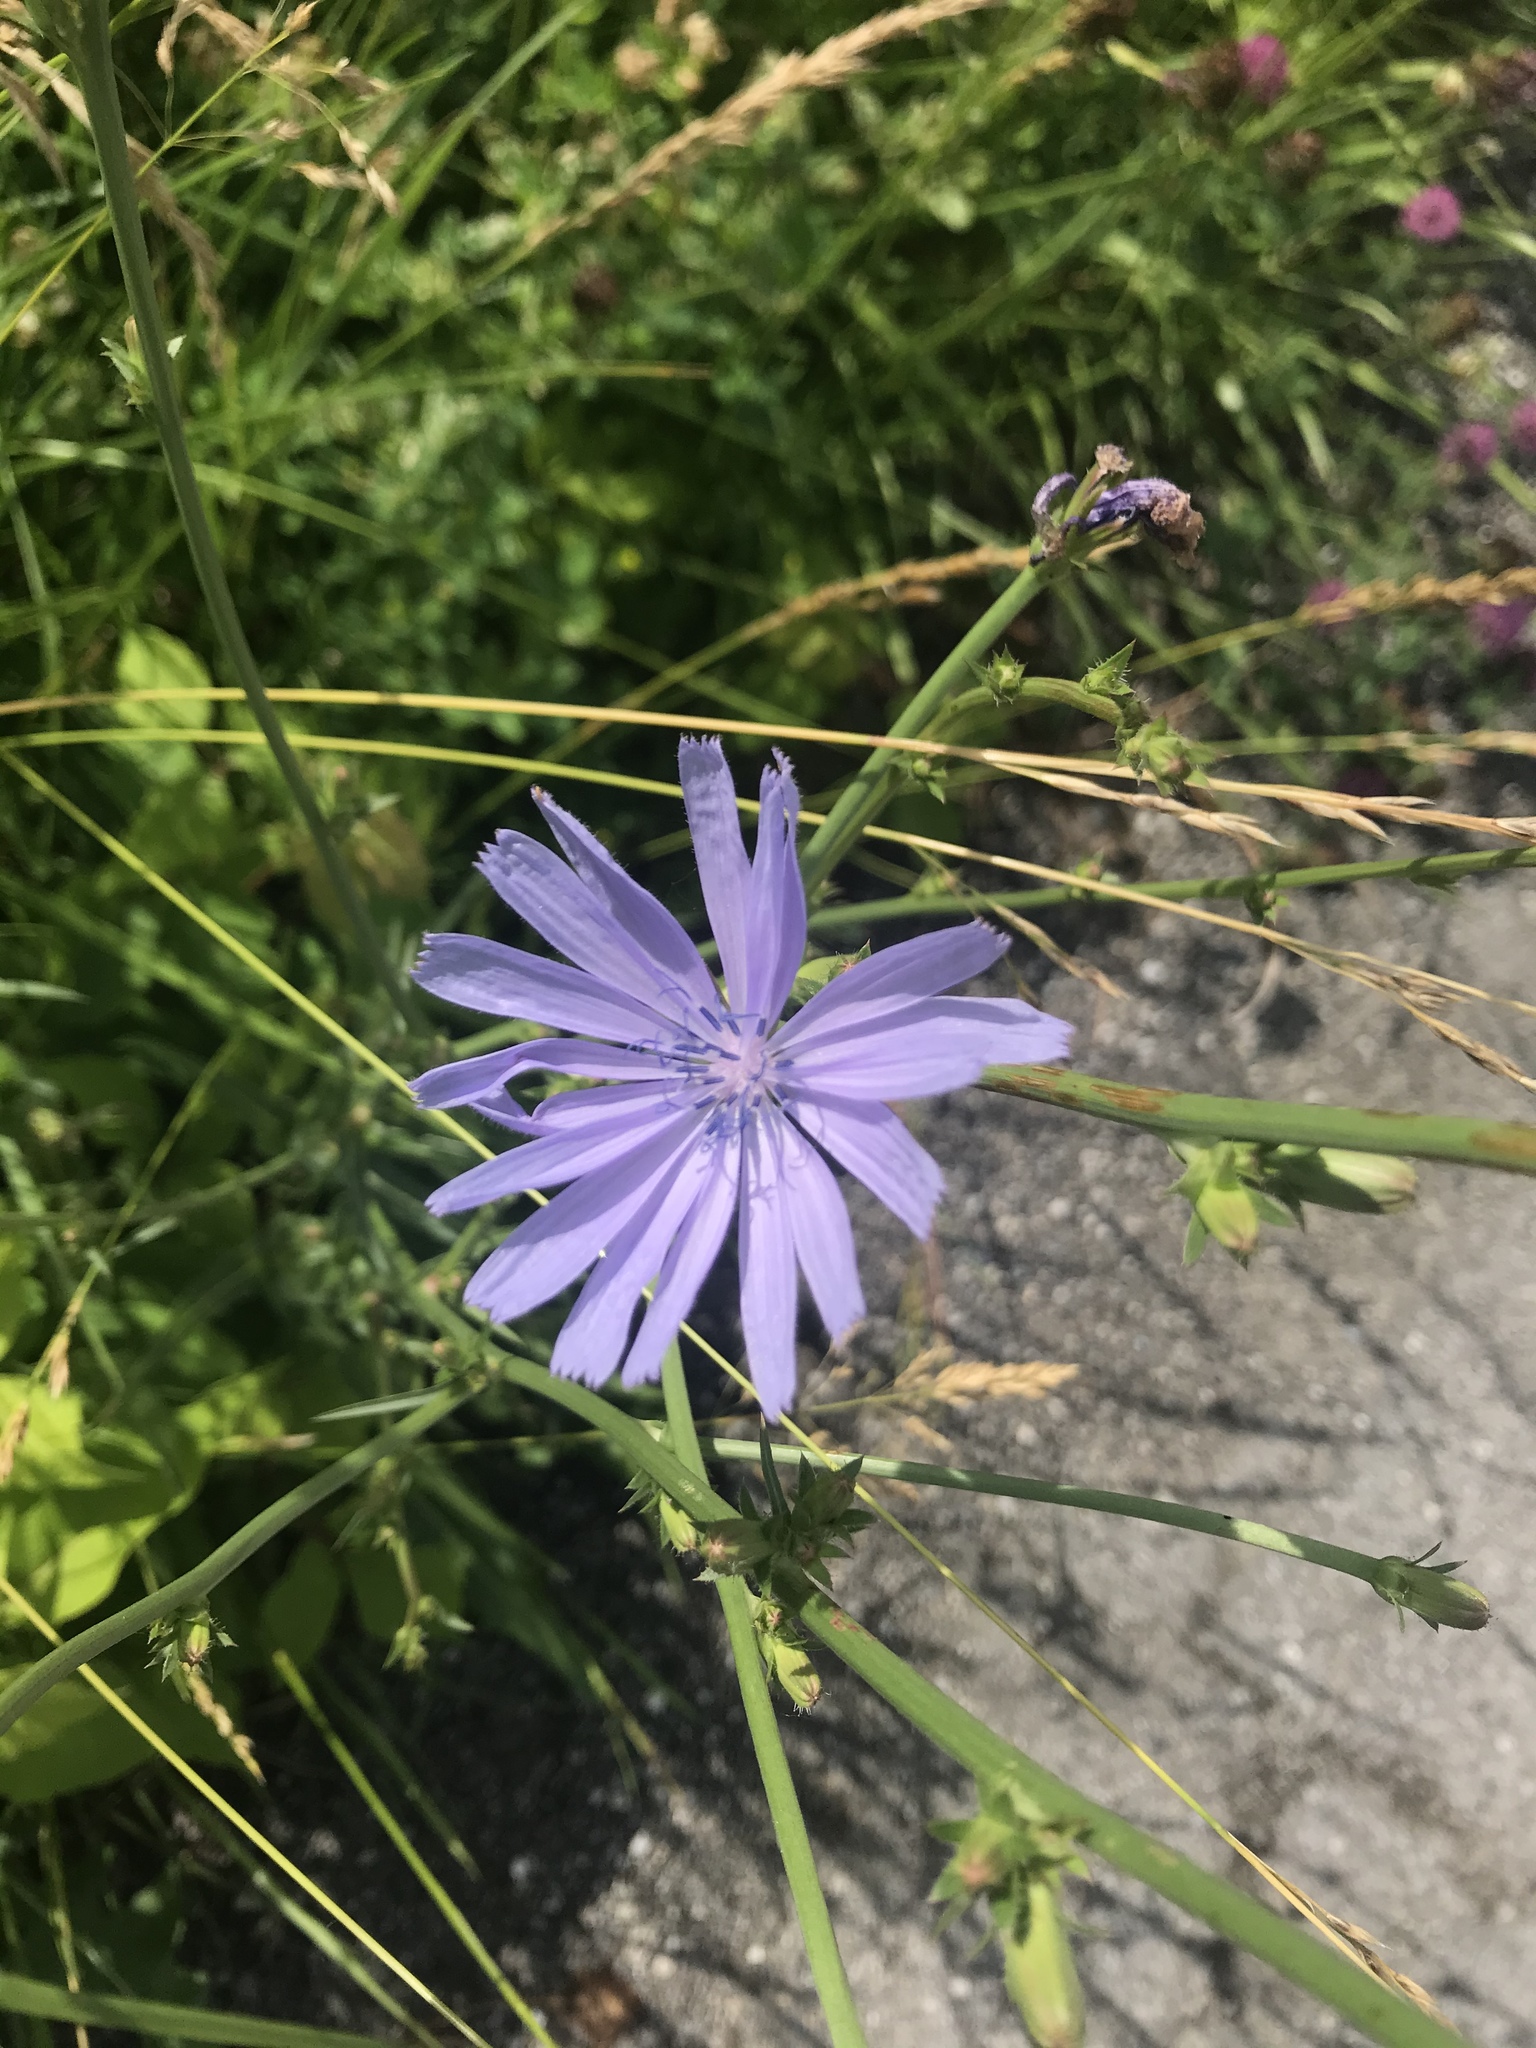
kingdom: Plantae
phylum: Tracheophyta
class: Magnoliopsida
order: Asterales
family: Asteraceae
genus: Cichorium
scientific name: Cichorium intybus
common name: Chicory
